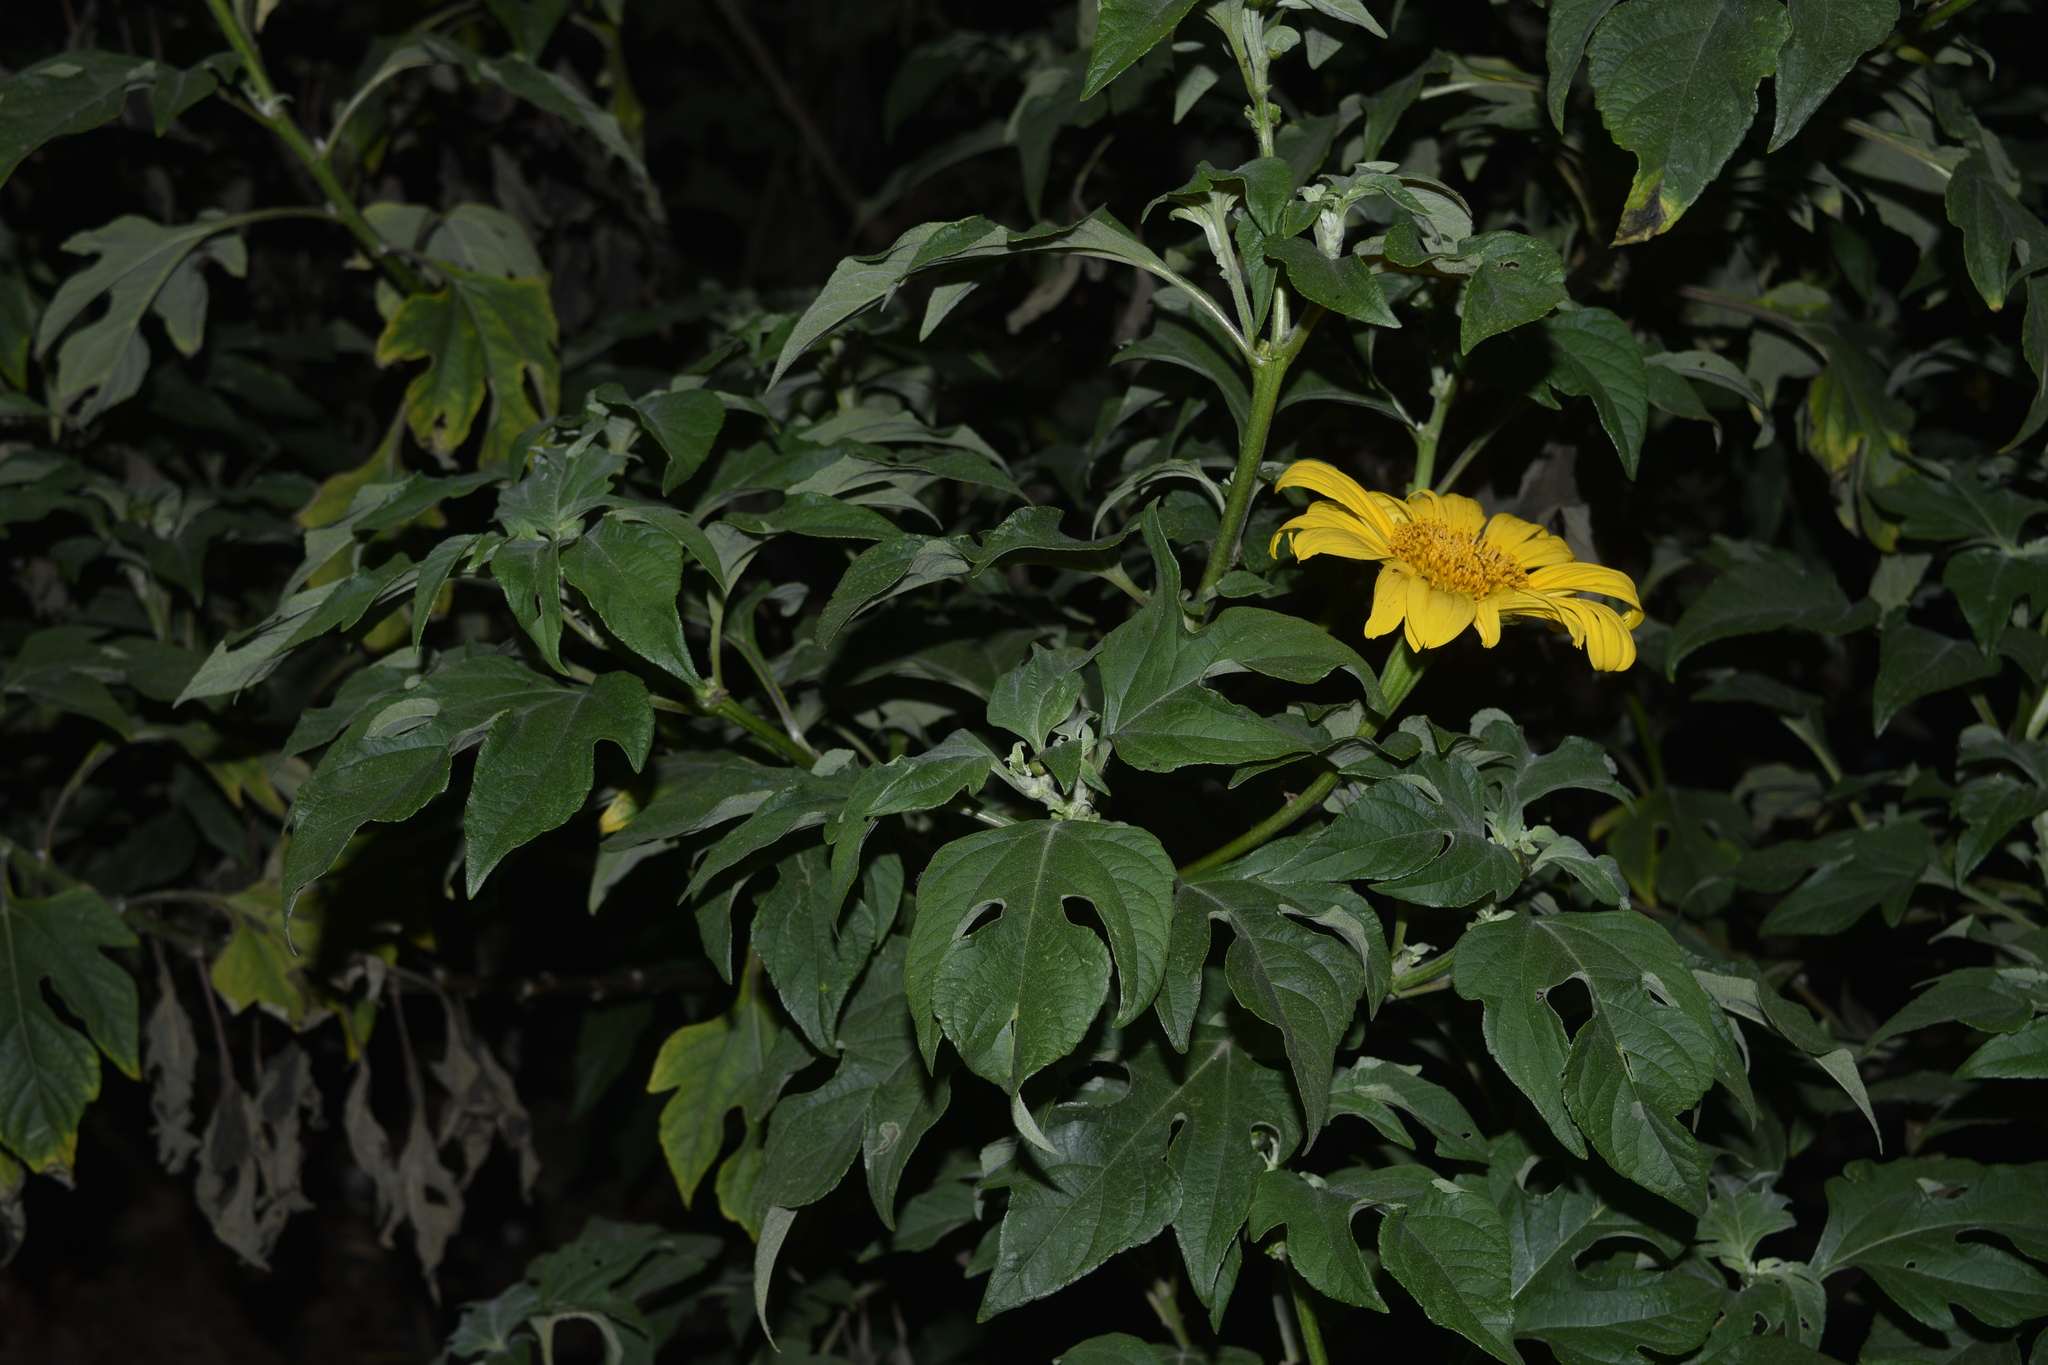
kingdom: Plantae
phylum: Tracheophyta
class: Magnoliopsida
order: Asterales
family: Asteraceae
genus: Tithonia
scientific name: Tithonia diversifolia
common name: Tree marigold
